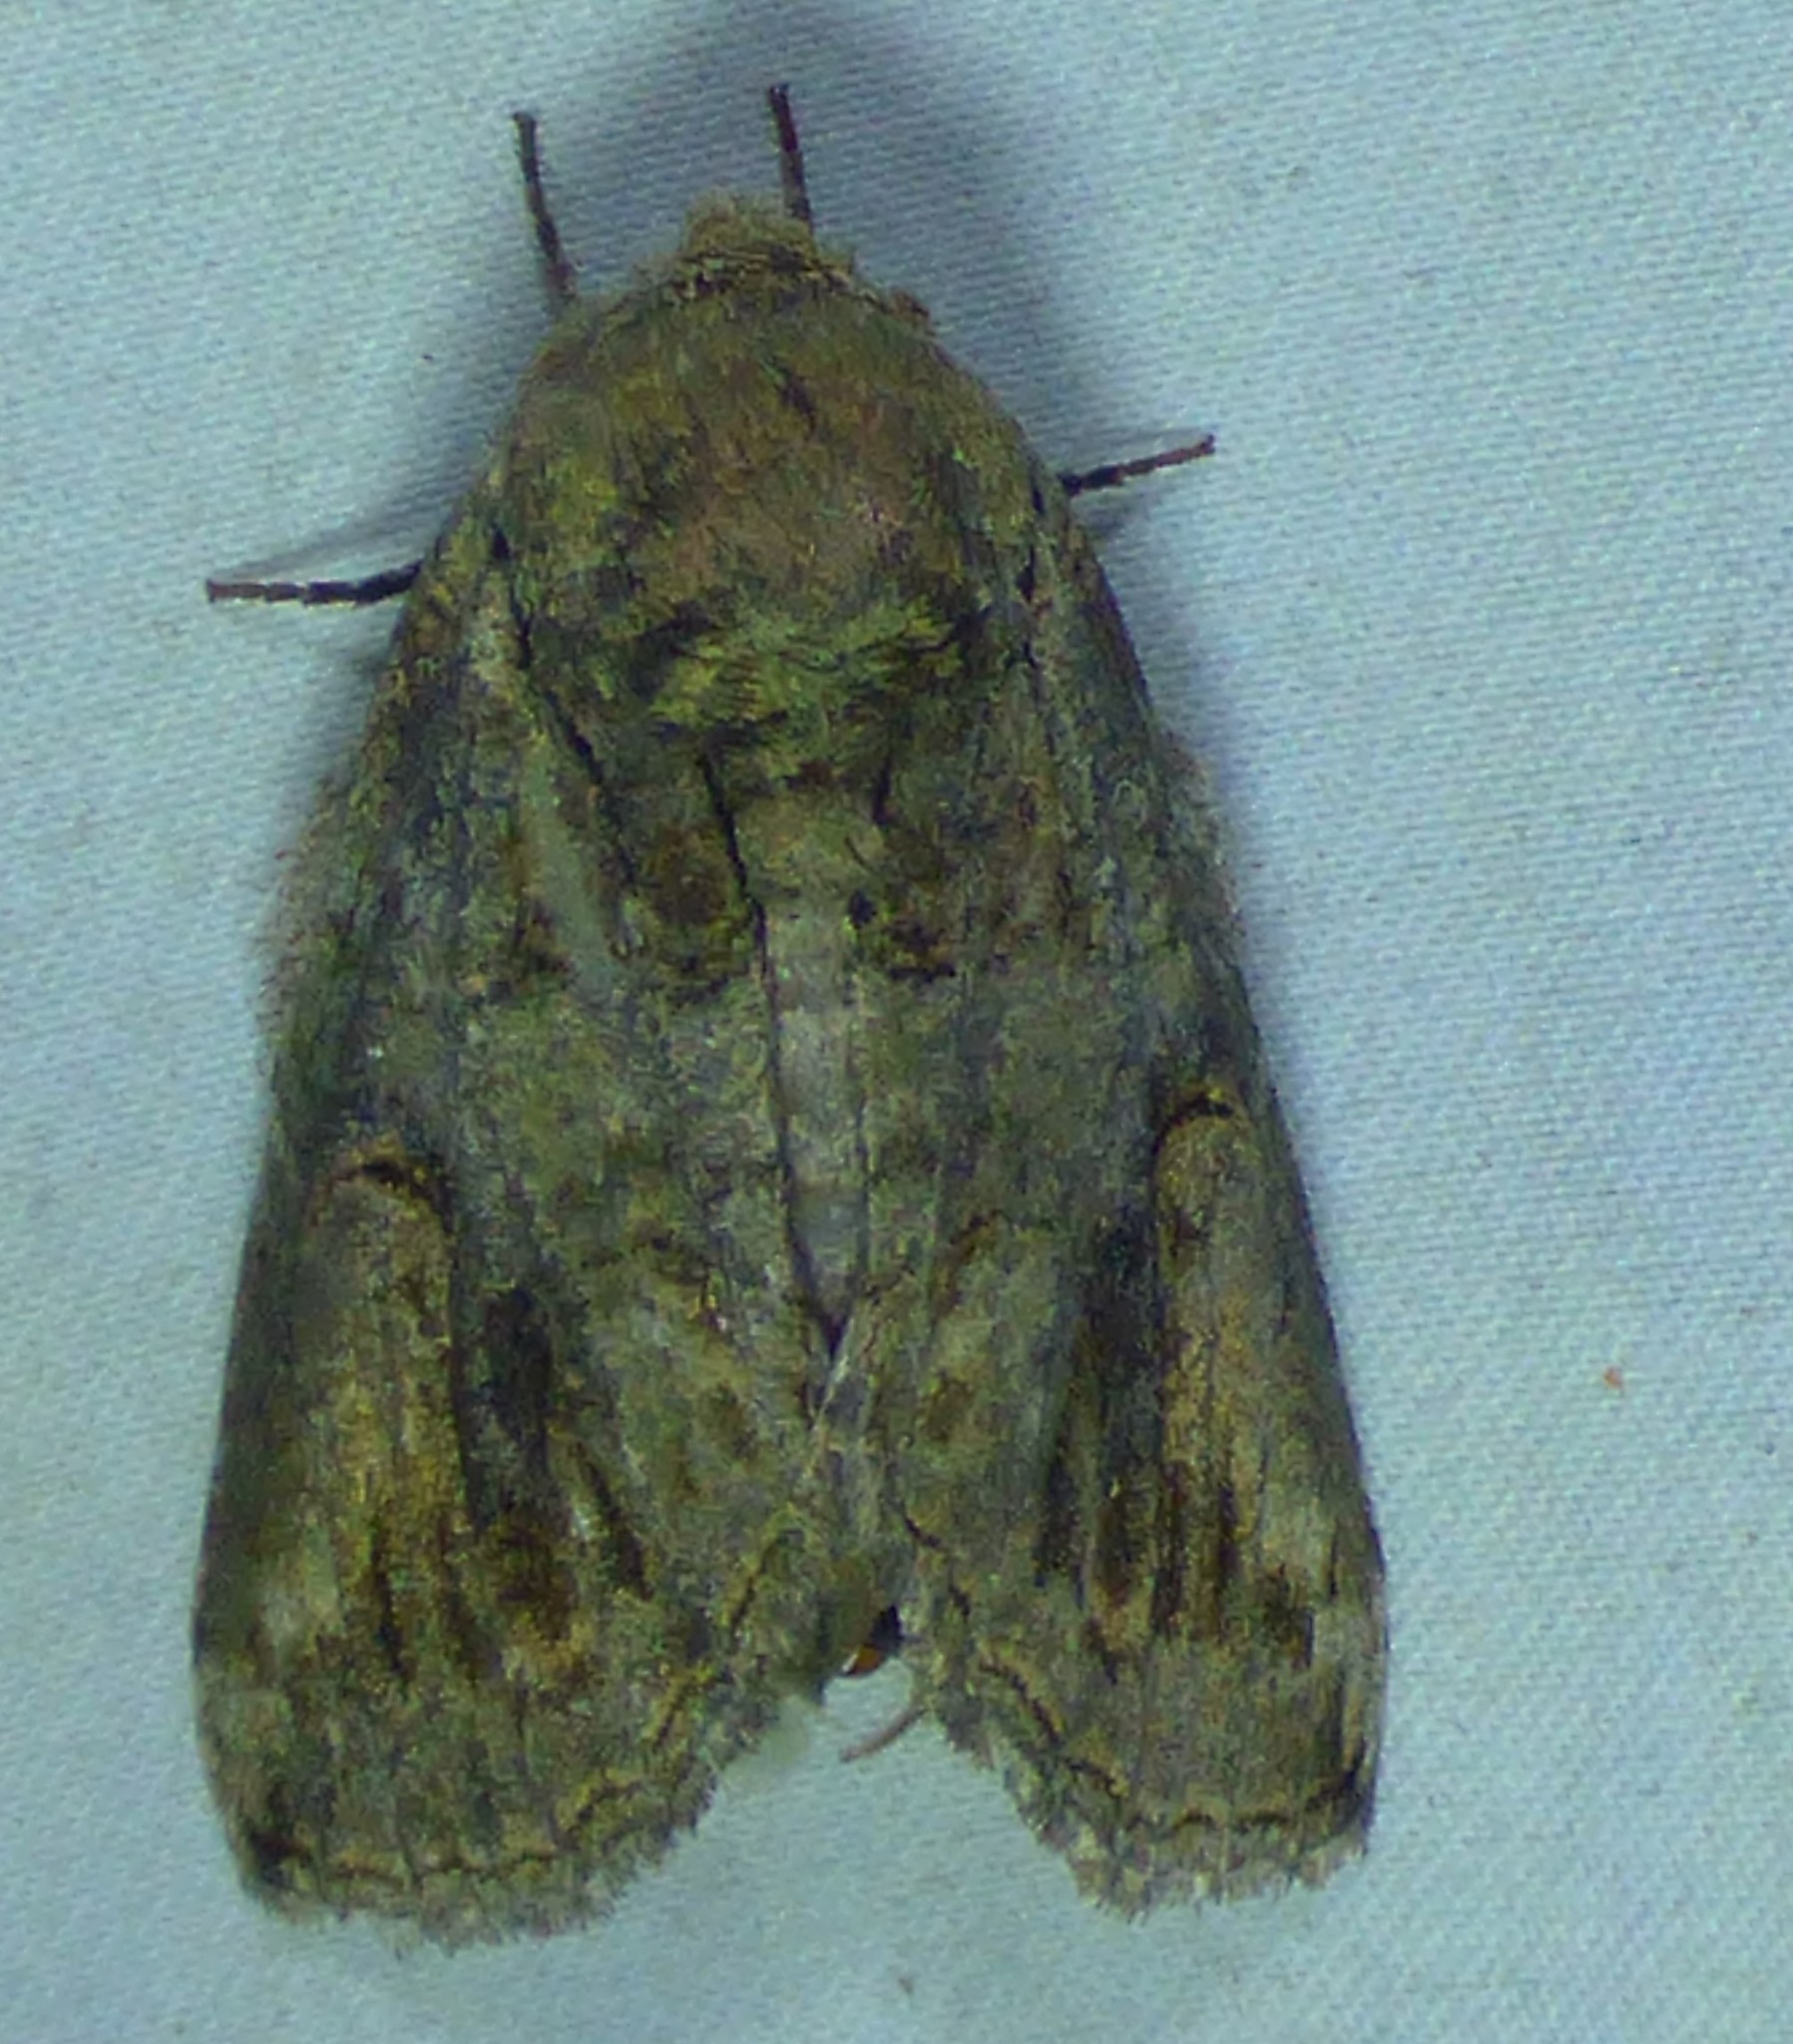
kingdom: Animalia
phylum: Arthropoda
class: Insecta
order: Lepidoptera
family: Notodontidae
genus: Heterocampa
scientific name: Heterocampa obliqua
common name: Oblique heterocampa
